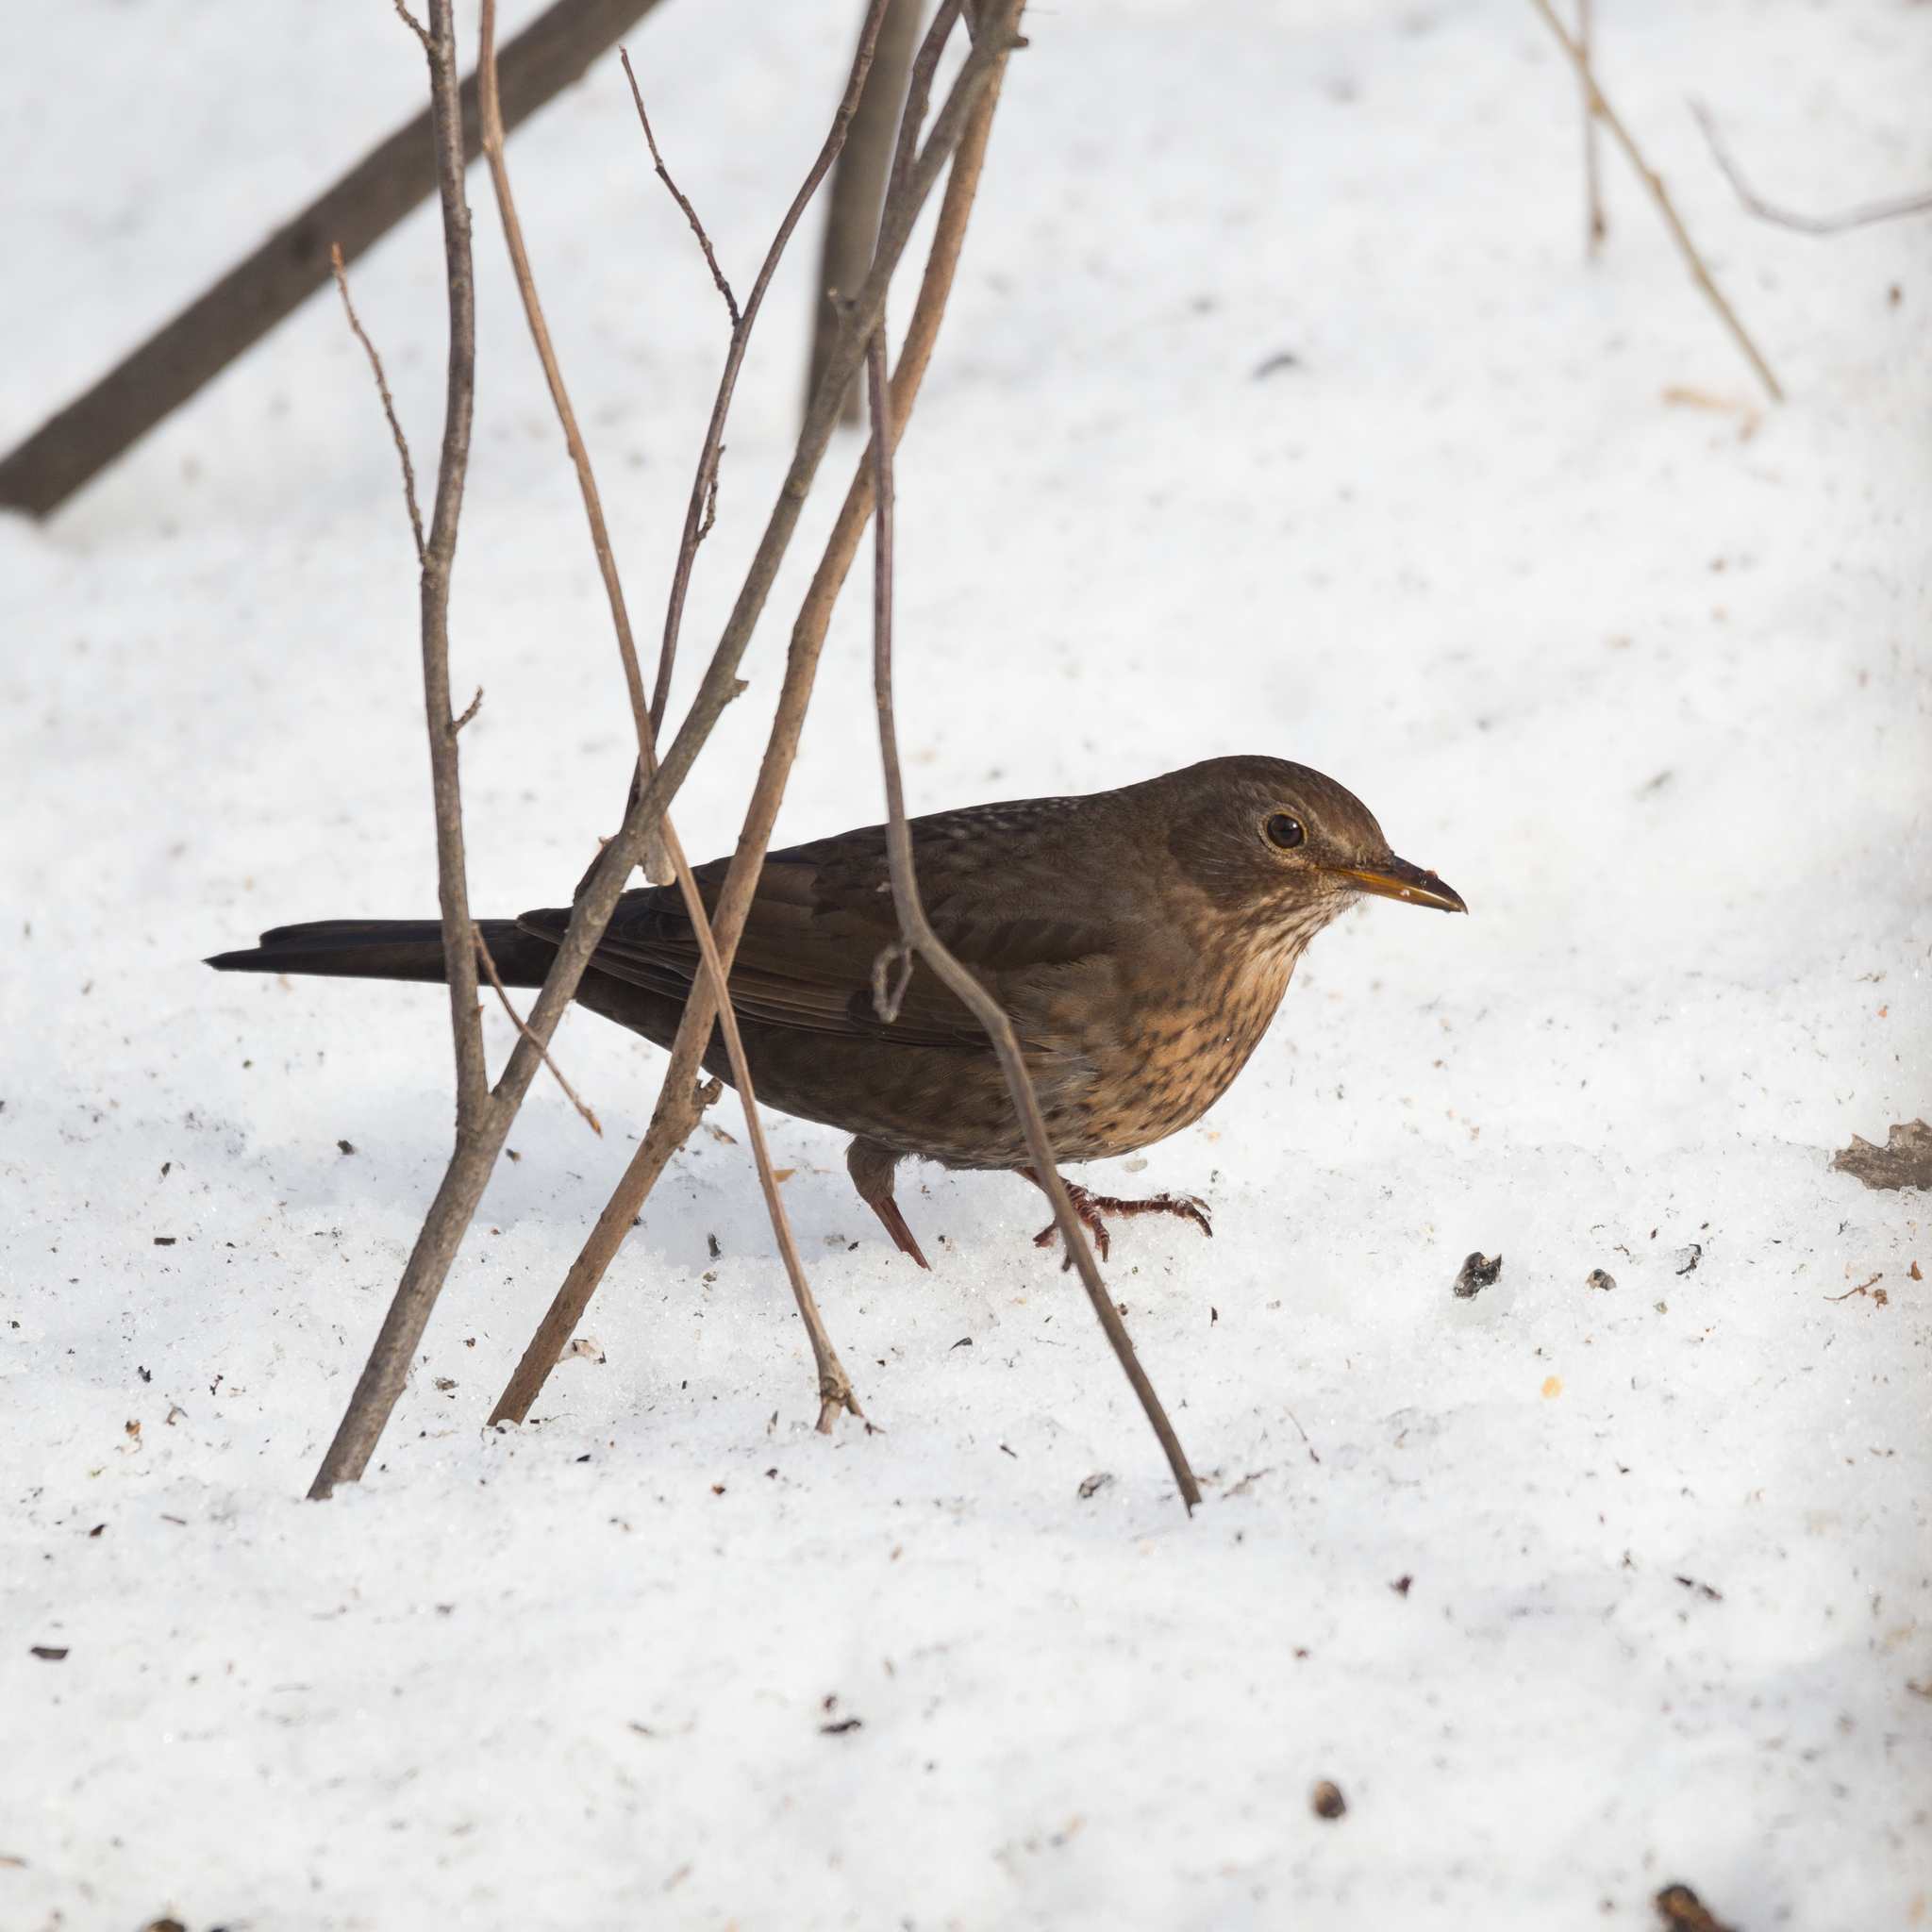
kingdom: Animalia
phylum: Chordata
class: Aves
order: Passeriformes
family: Turdidae
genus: Turdus
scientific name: Turdus merula
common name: Common blackbird
